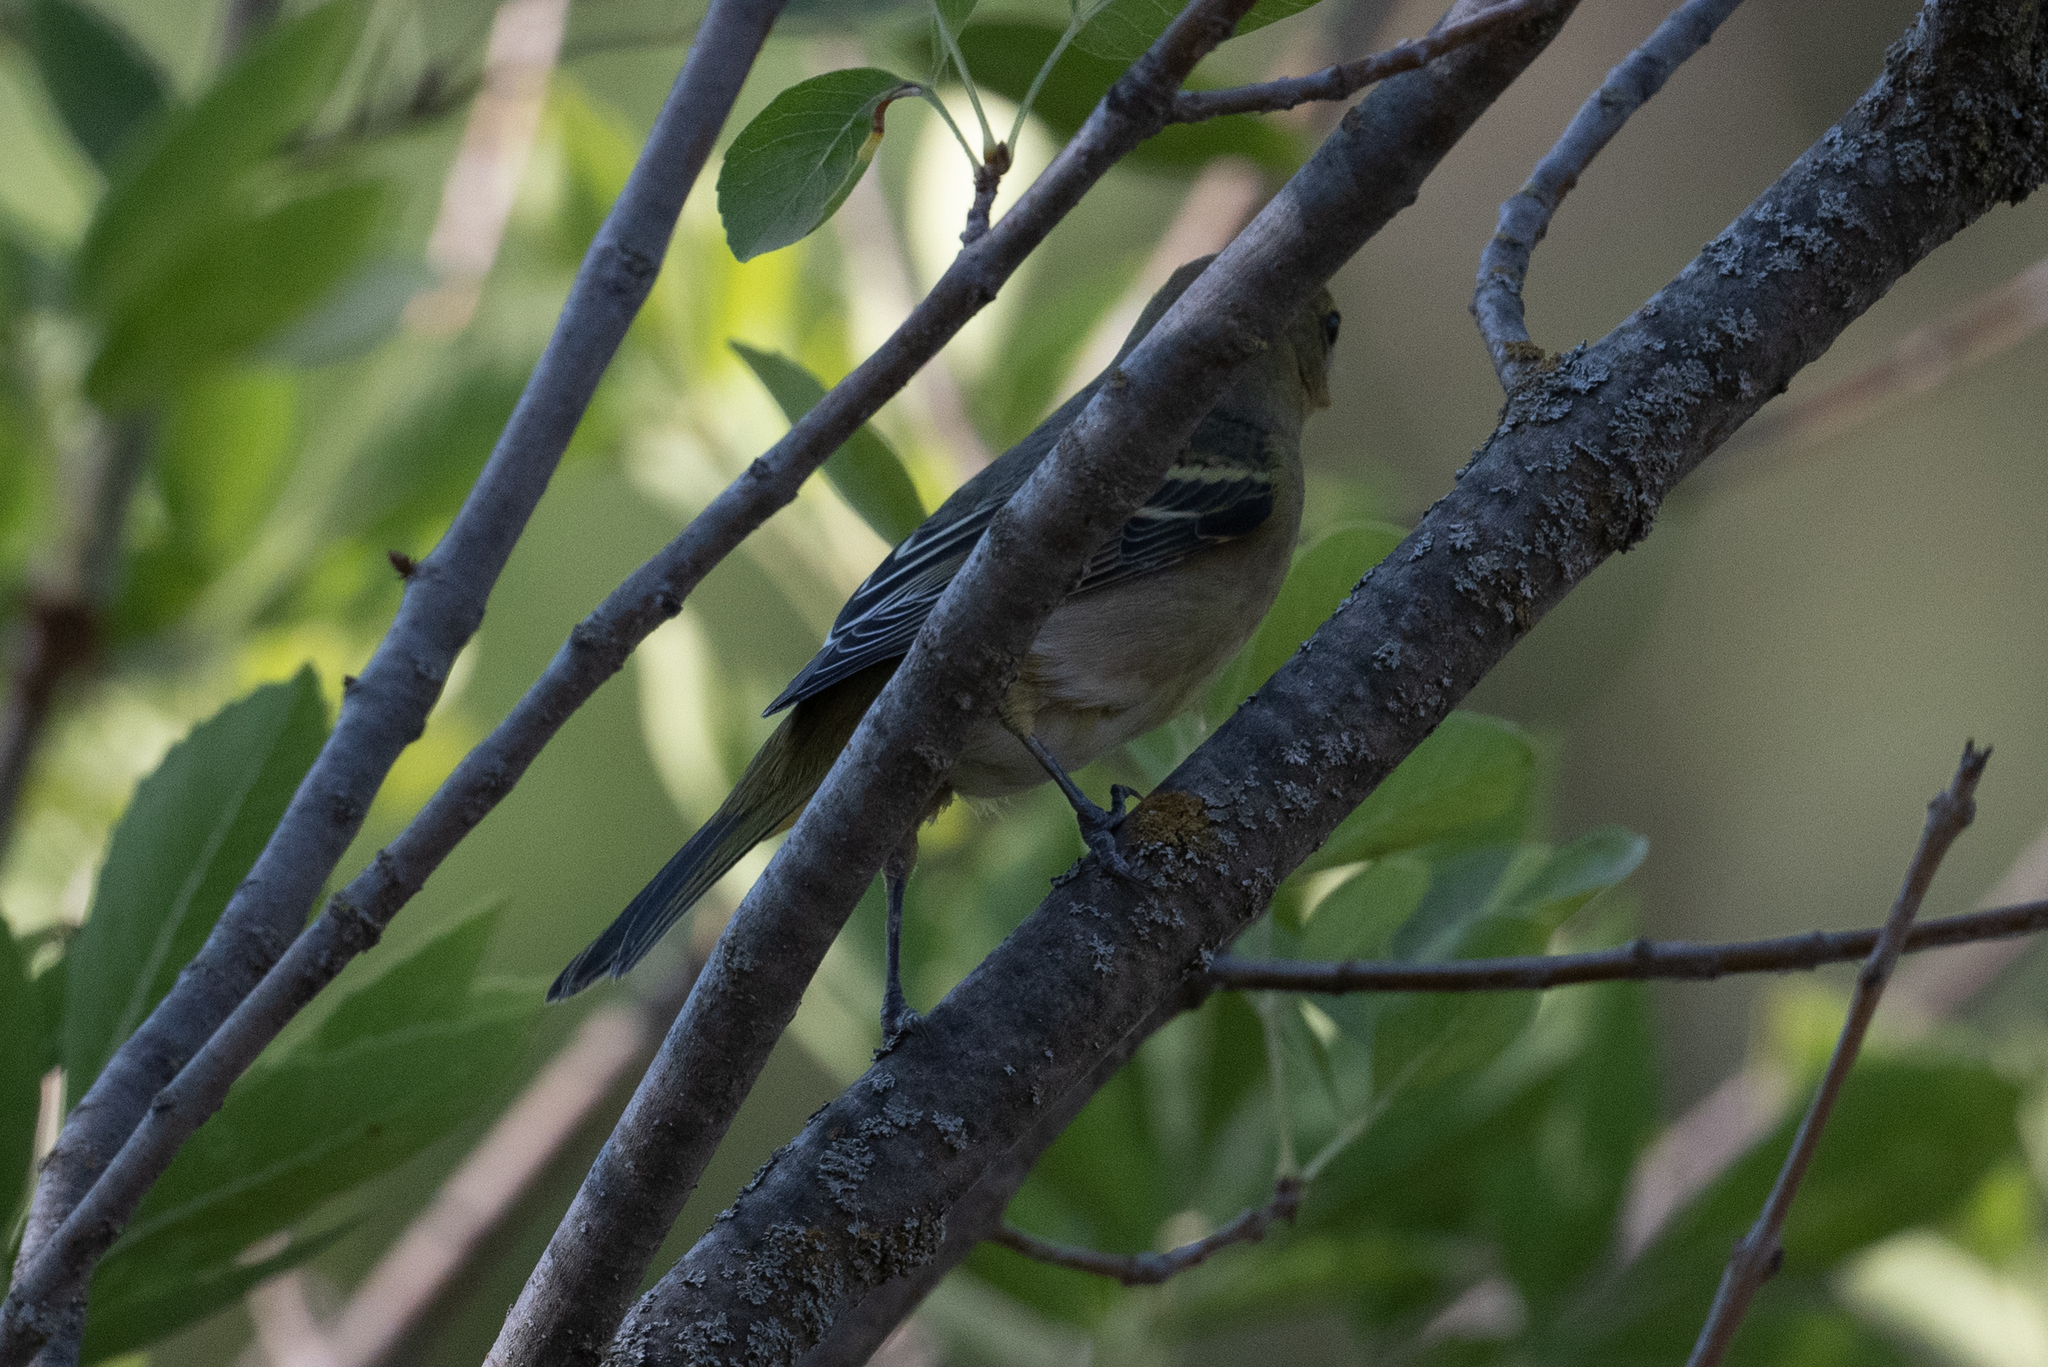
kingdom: Animalia
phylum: Chordata
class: Aves
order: Passeriformes
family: Cardinalidae
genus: Piranga
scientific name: Piranga ludoviciana
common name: Western tanager
